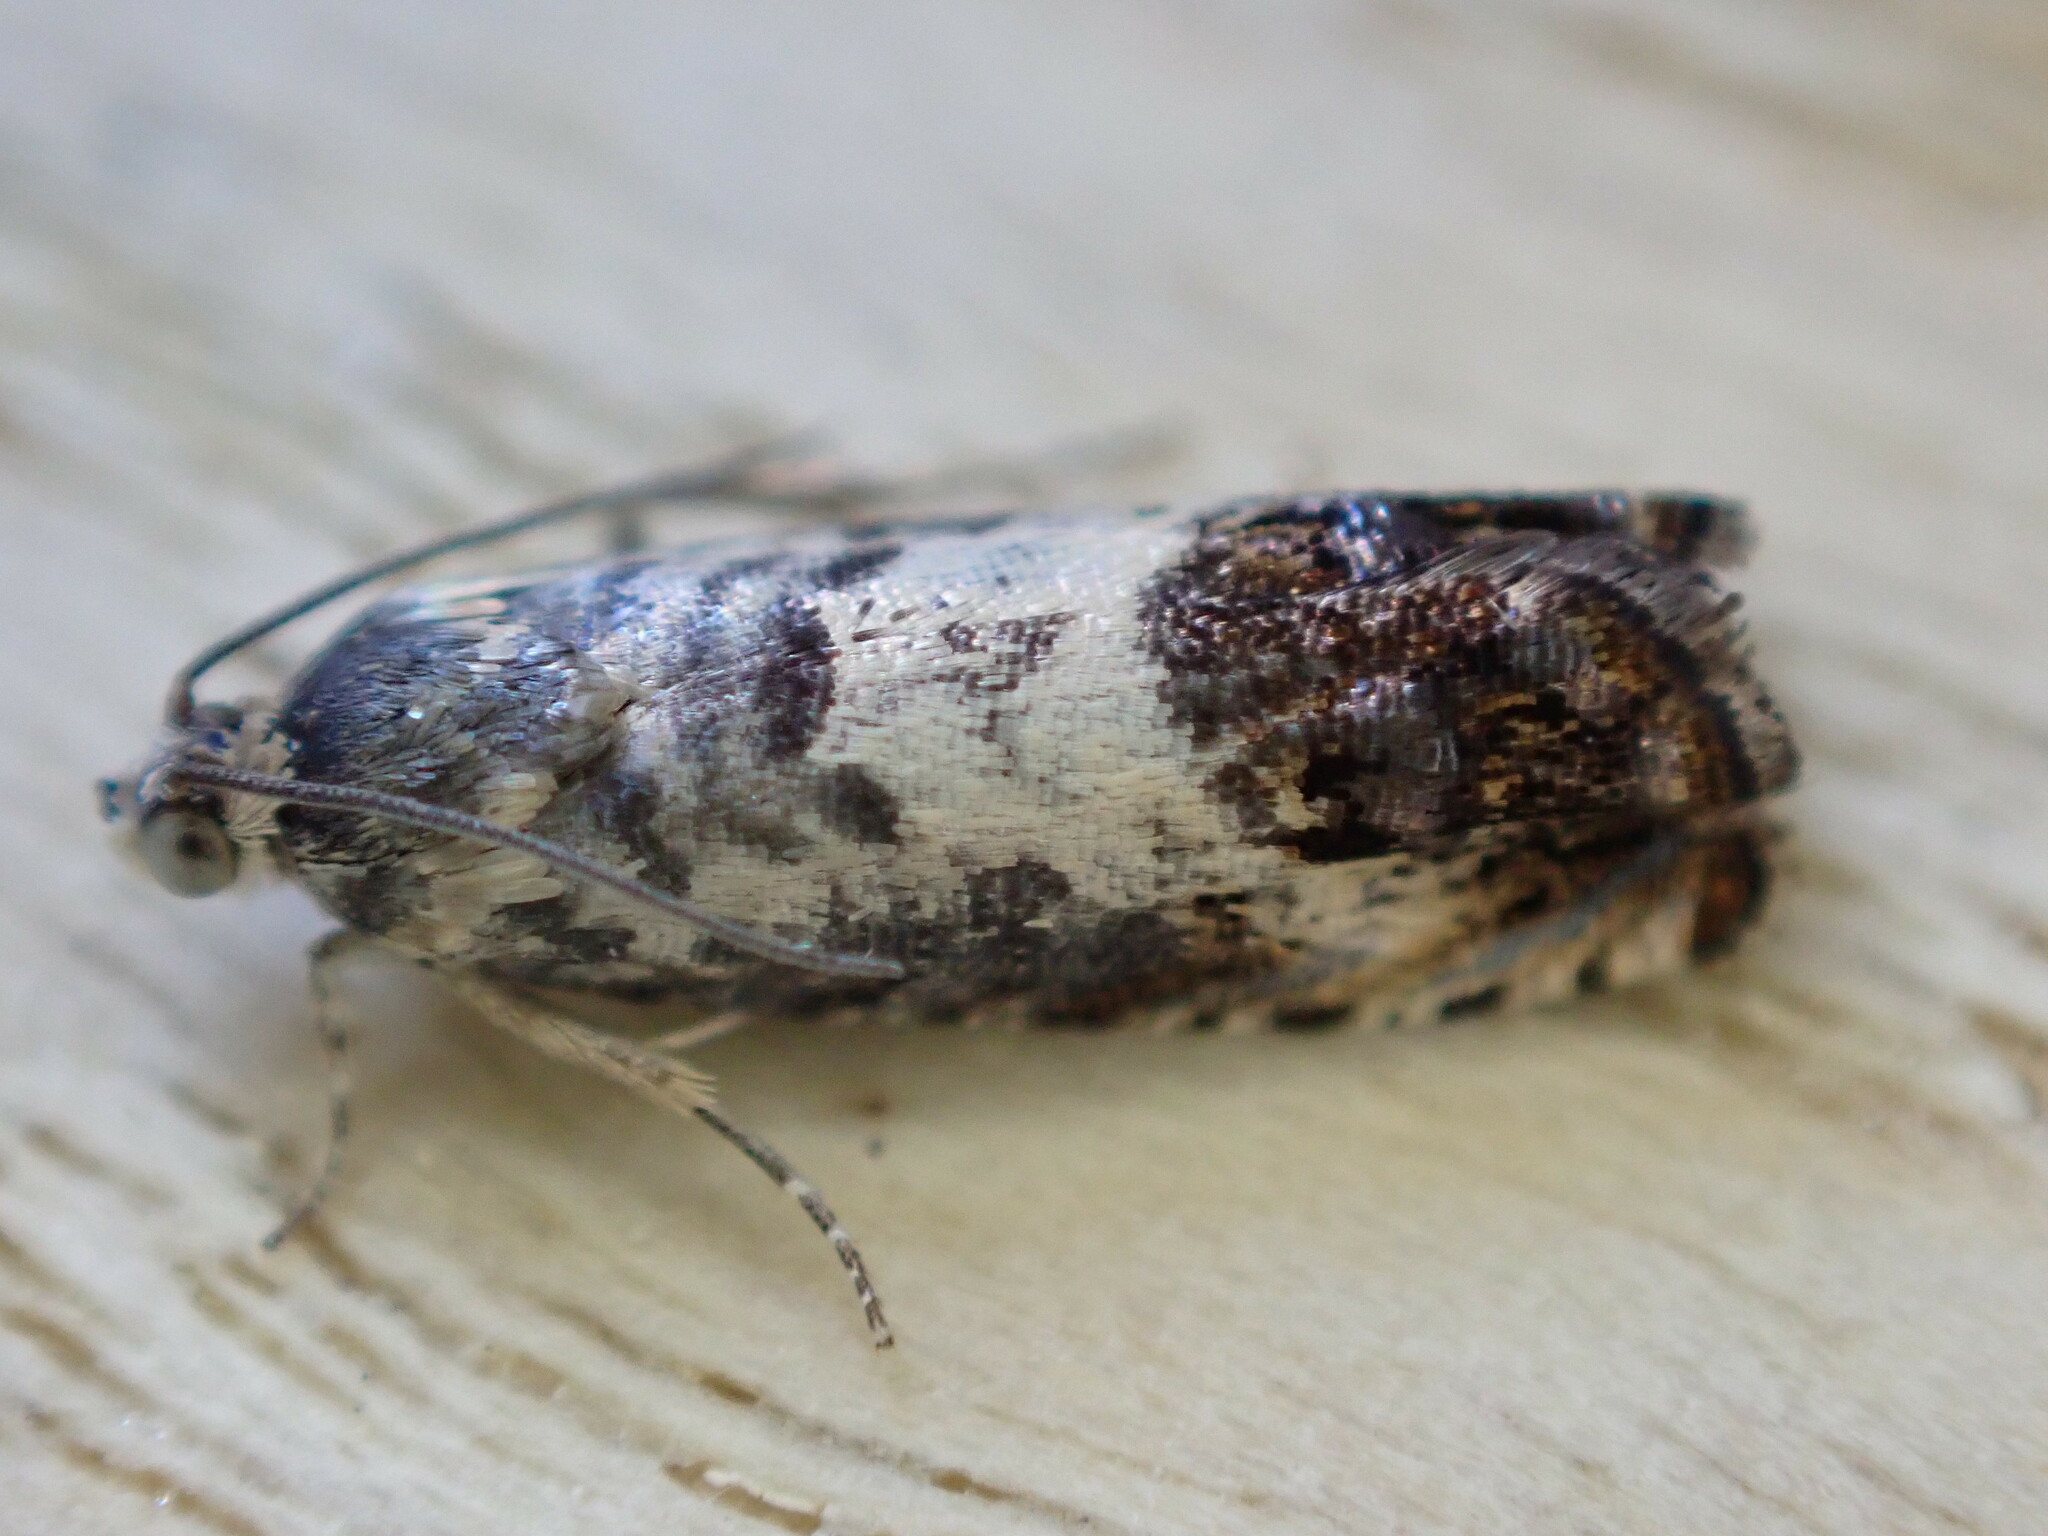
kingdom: Animalia
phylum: Arthropoda
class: Insecta
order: Lepidoptera
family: Tortricidae
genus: Pammene
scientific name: Pammene fasciana
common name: Acorn piercer
